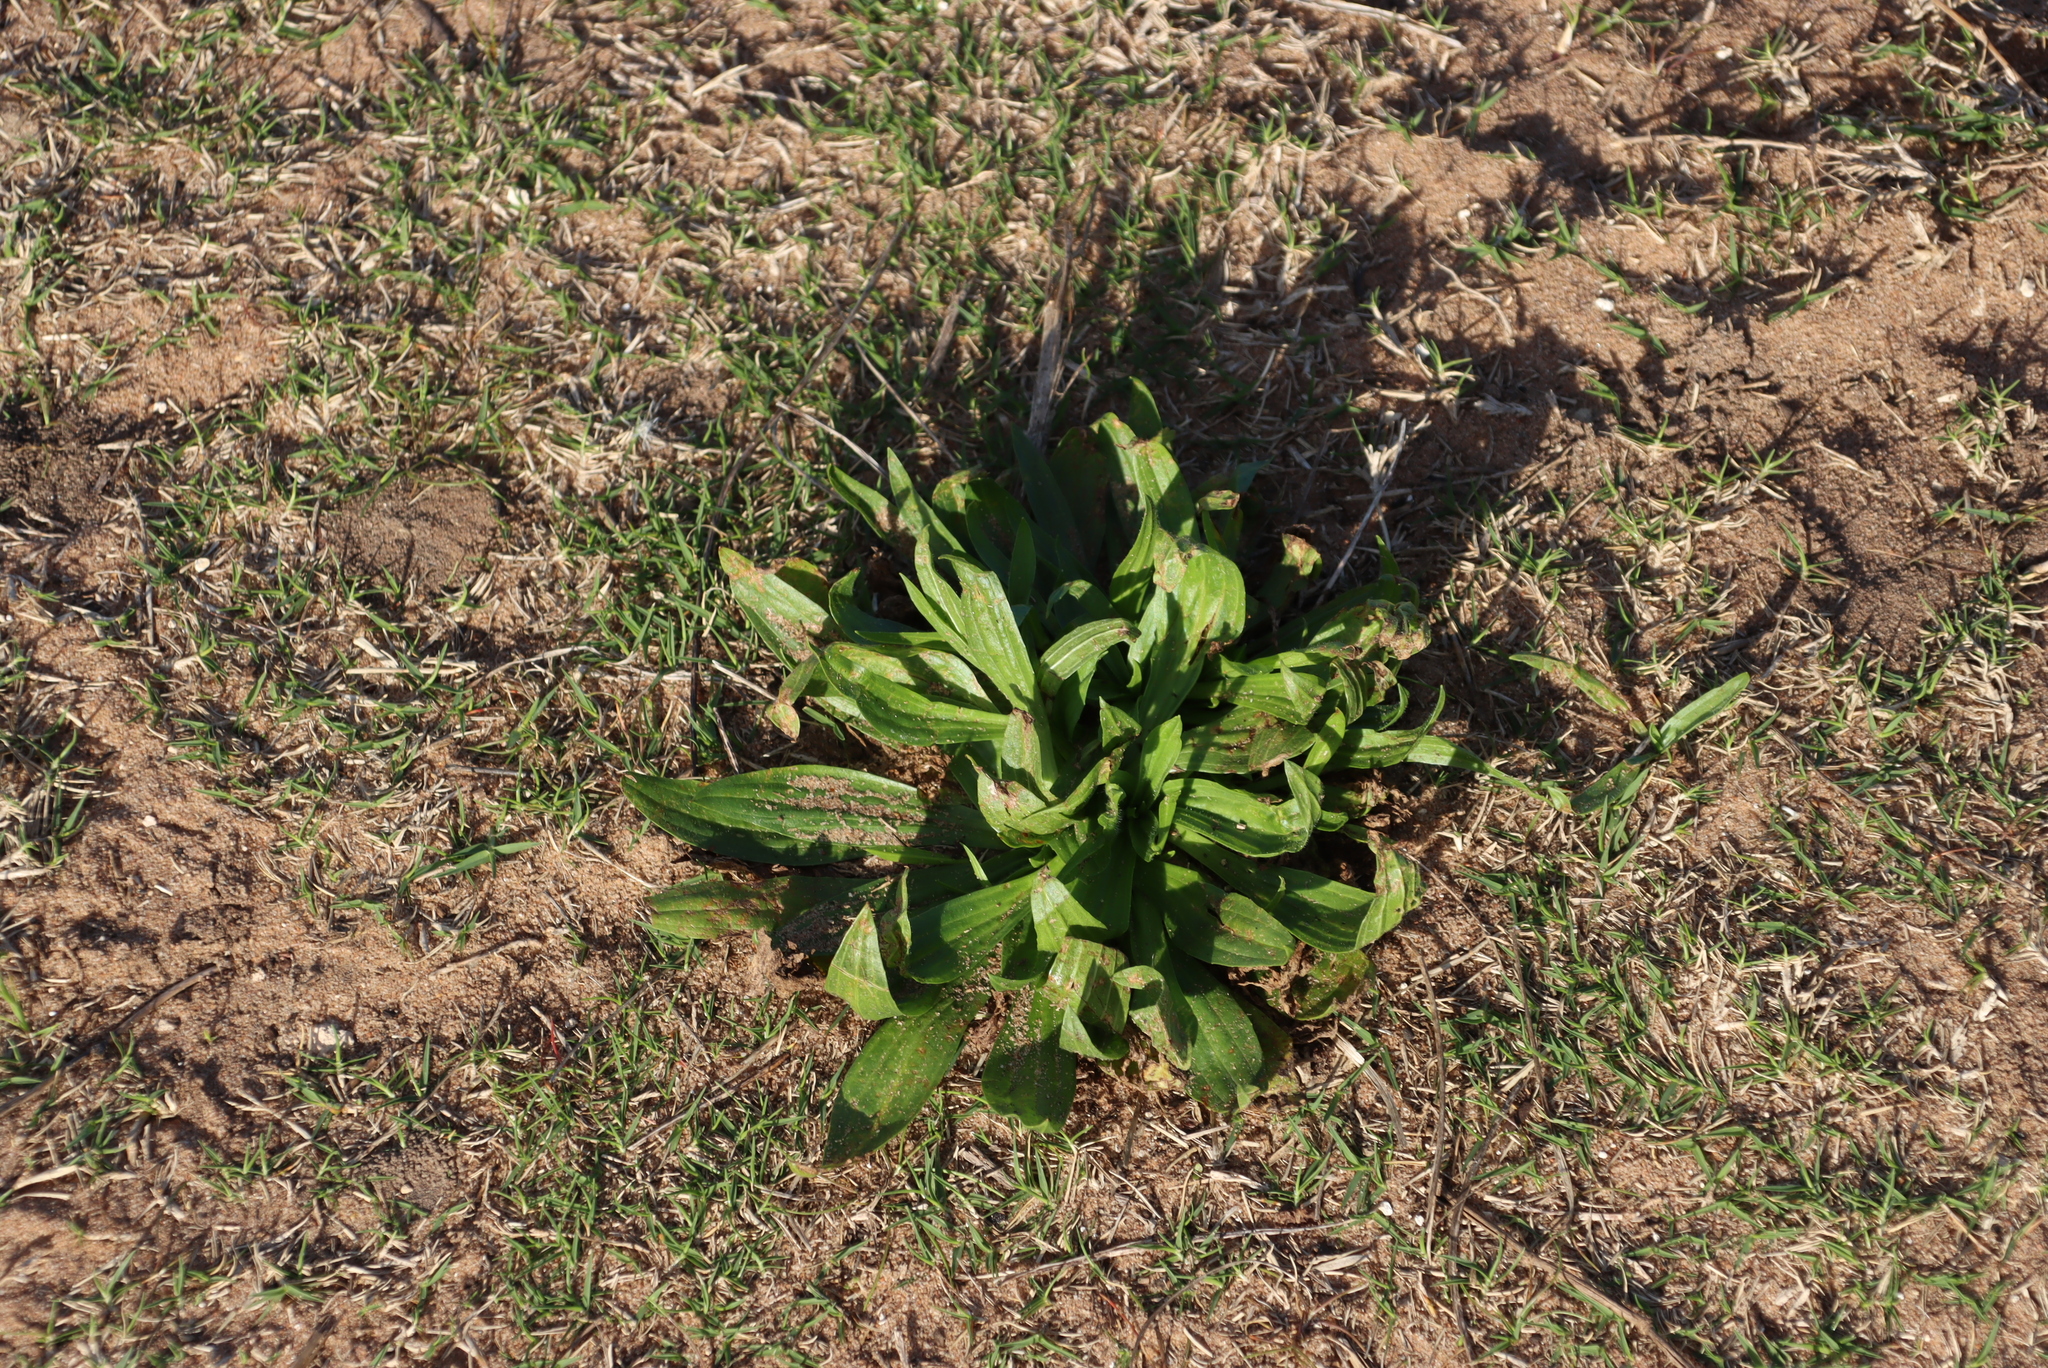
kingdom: Plantae
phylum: Tracheophyta
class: Magnoliopsida
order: Lamiales
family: Plantaginaceae
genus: Plantago
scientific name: Plantago lanceolata
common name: Ribwort plantain
